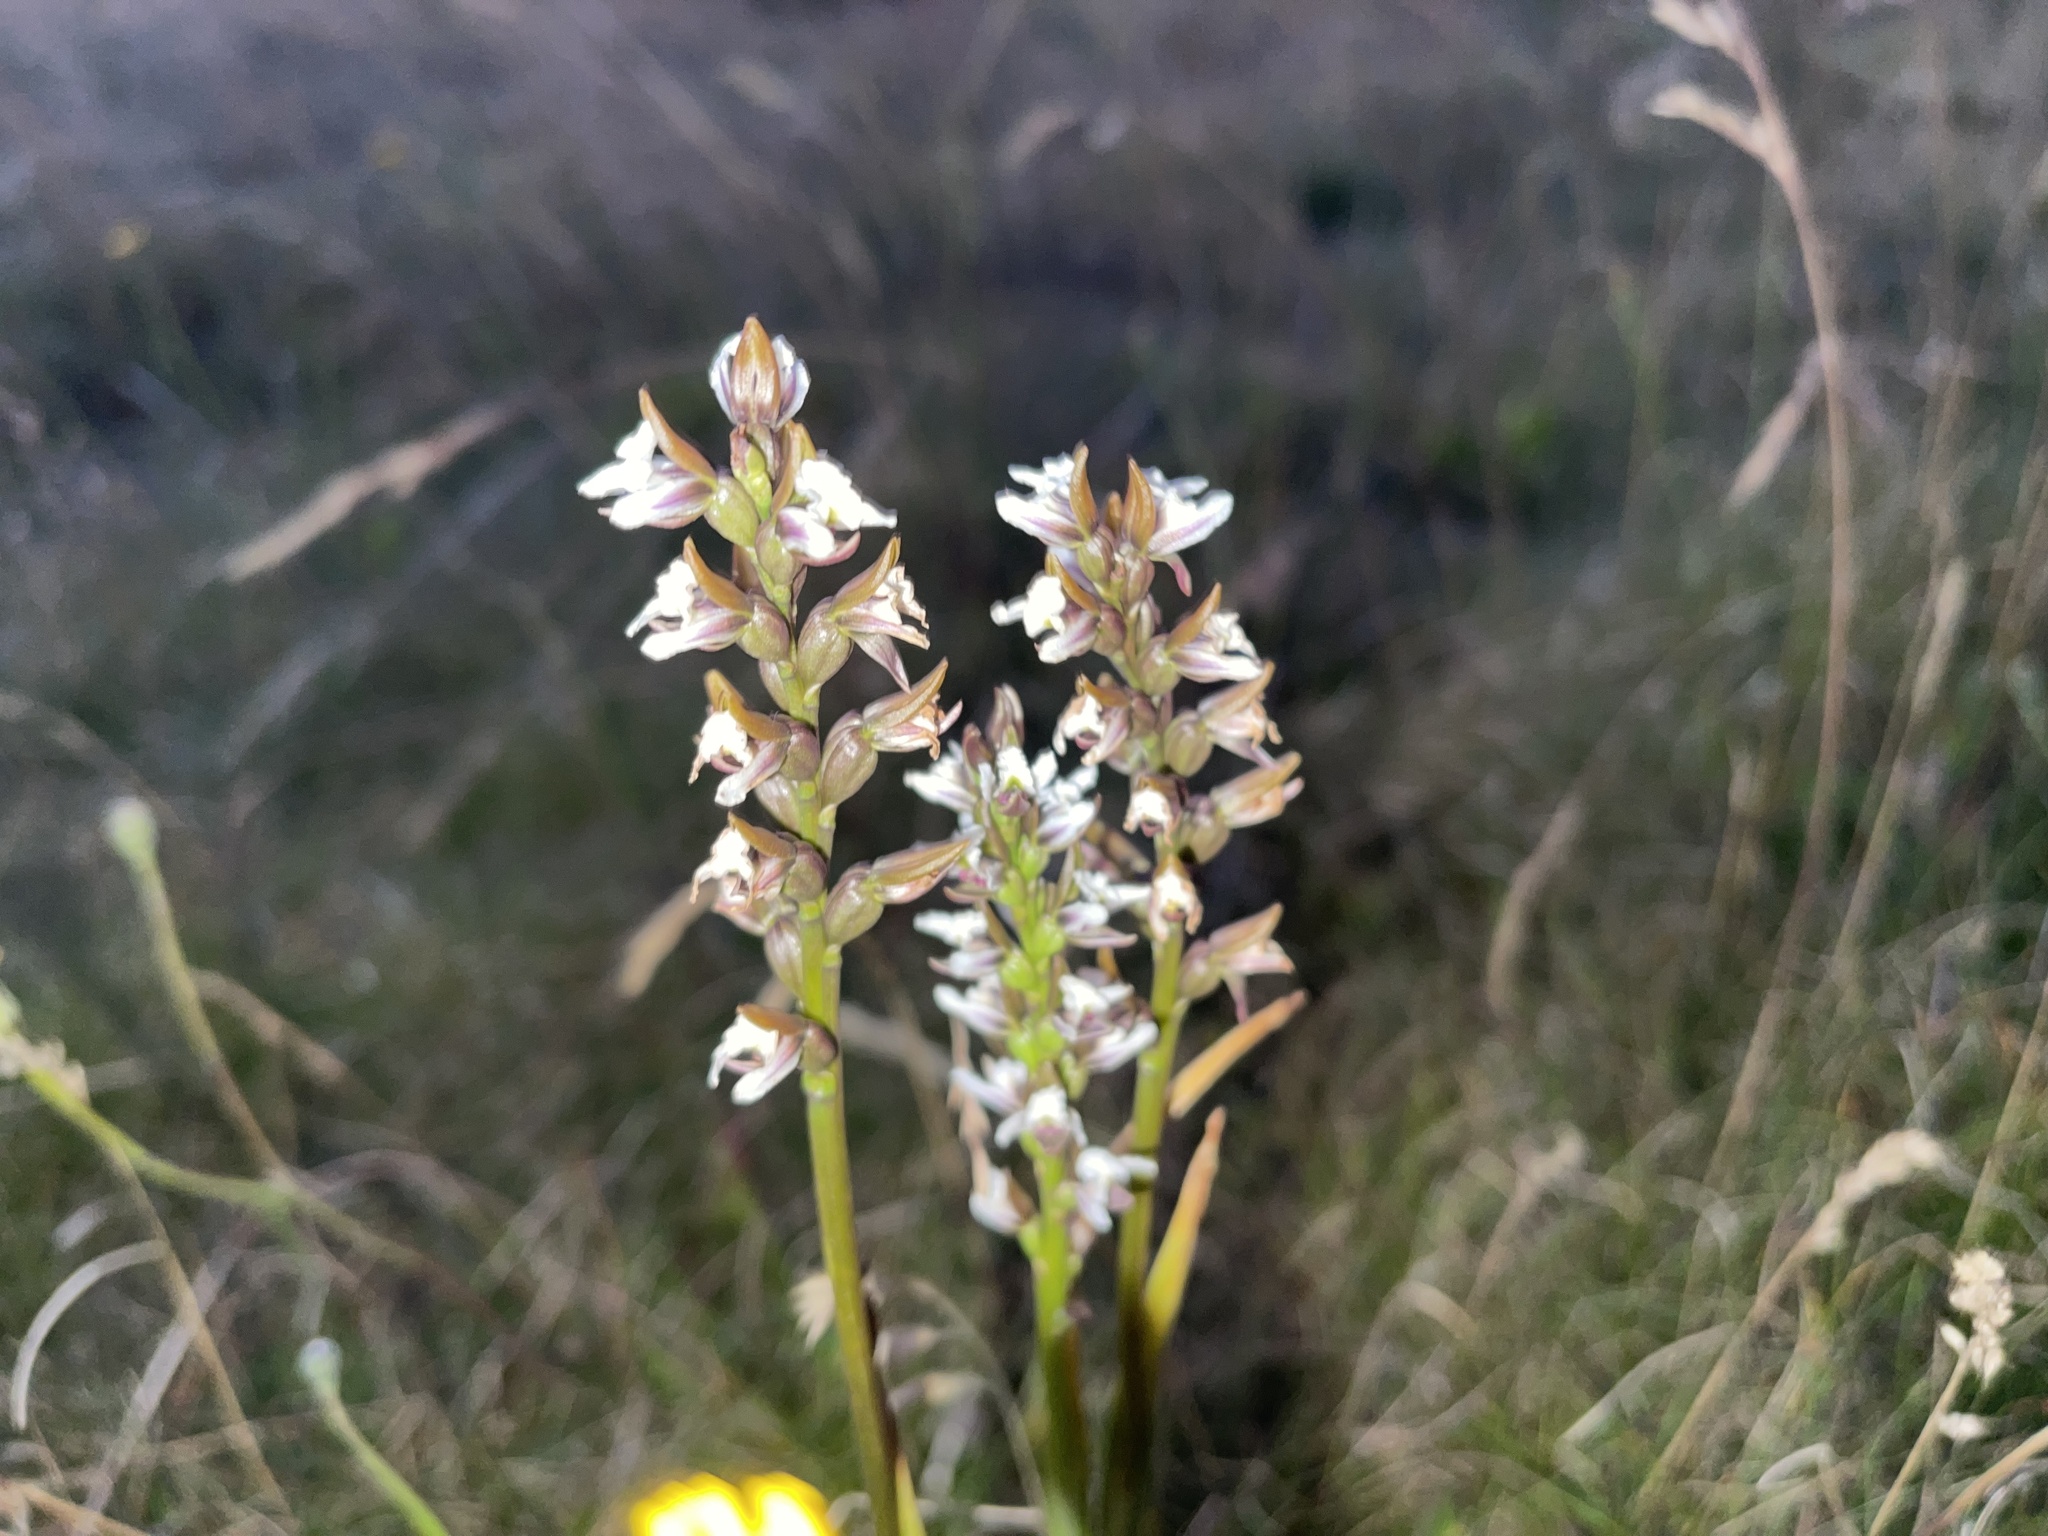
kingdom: Plantae
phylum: Tracheophyta
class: Liliopsida
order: Asparagales
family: Orchidaceae
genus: Prasophyllum
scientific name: Prasophyllum suttonii
